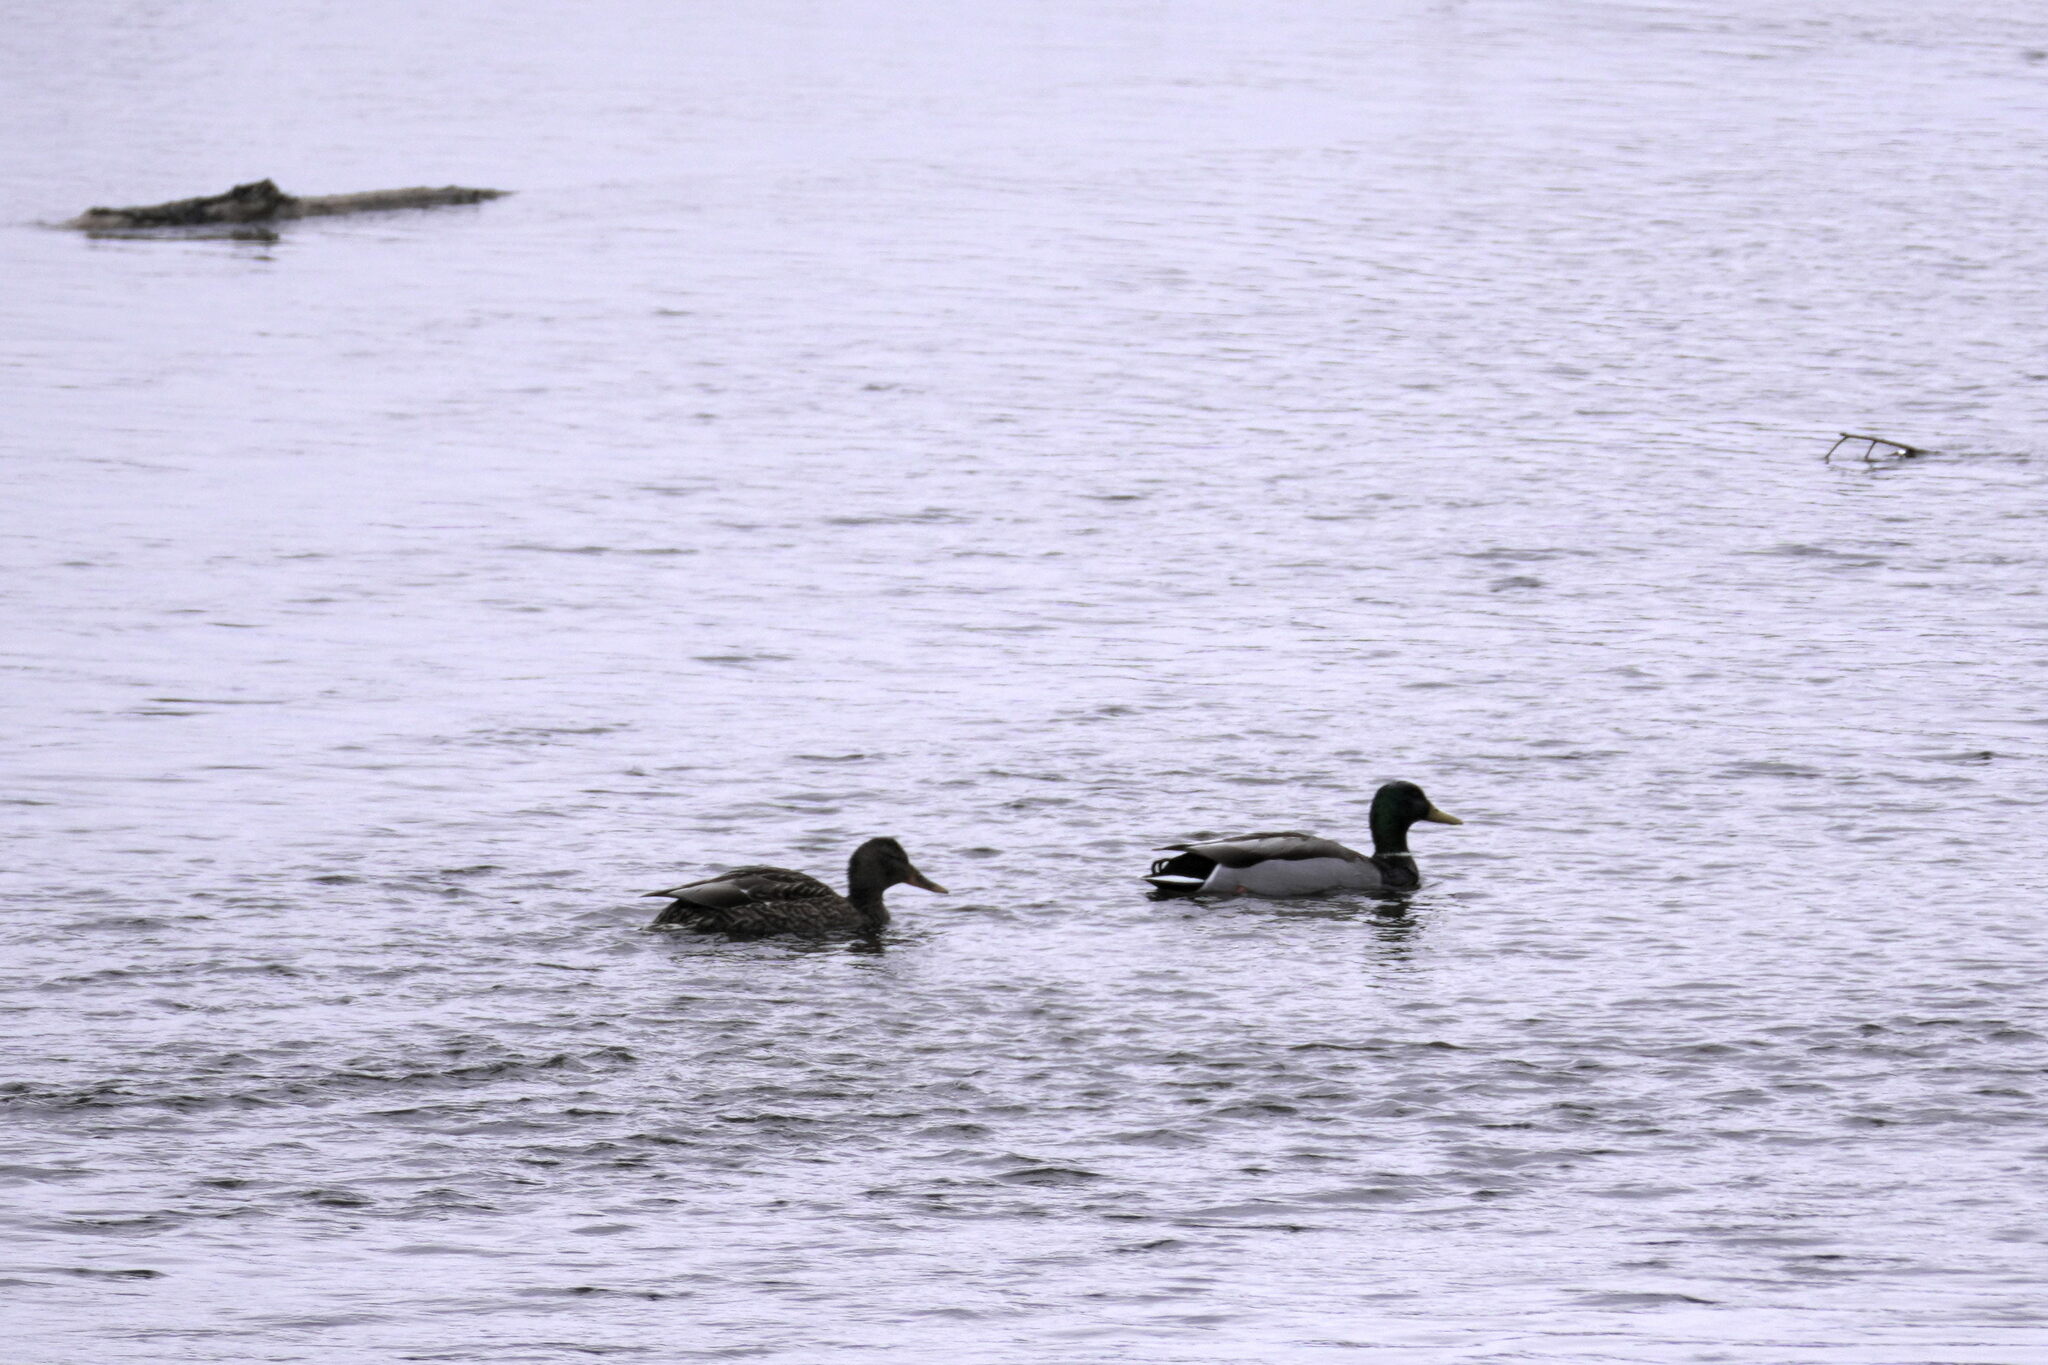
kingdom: Animalia
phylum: Chordata
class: Aves
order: Anseriformes
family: Anatidae
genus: Anas
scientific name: Anas platyrhynchos
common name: Mallard
